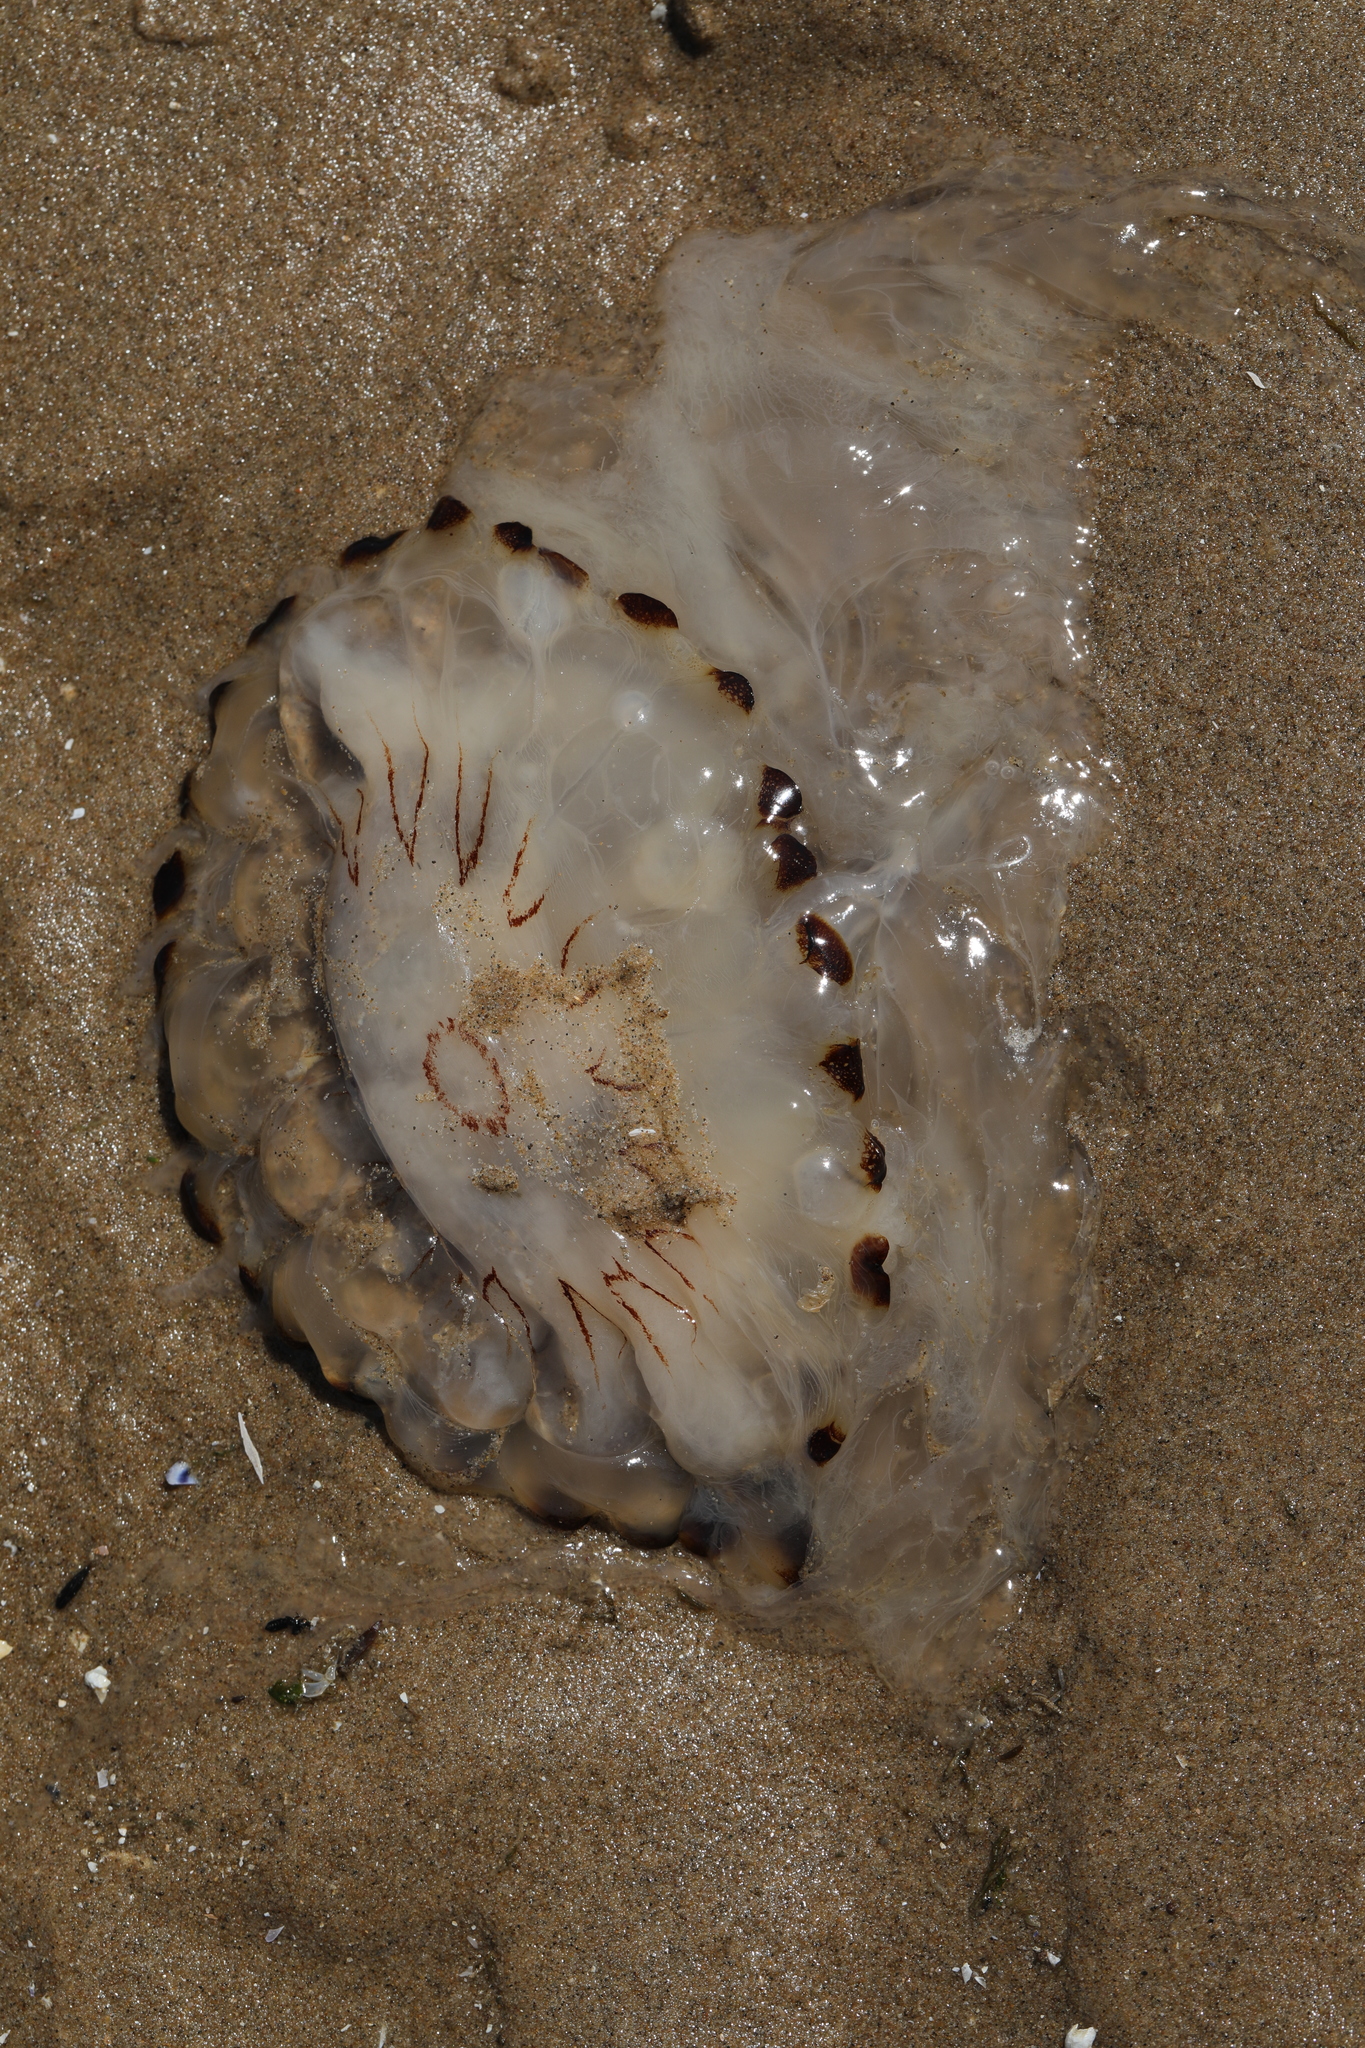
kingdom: Animalia
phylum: Cnidaria
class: Scyphozoa
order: Semaeostomeae
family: Pelagiidae
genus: Chrysaora
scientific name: Chrysaora hysoscella
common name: Compass jellyfish
